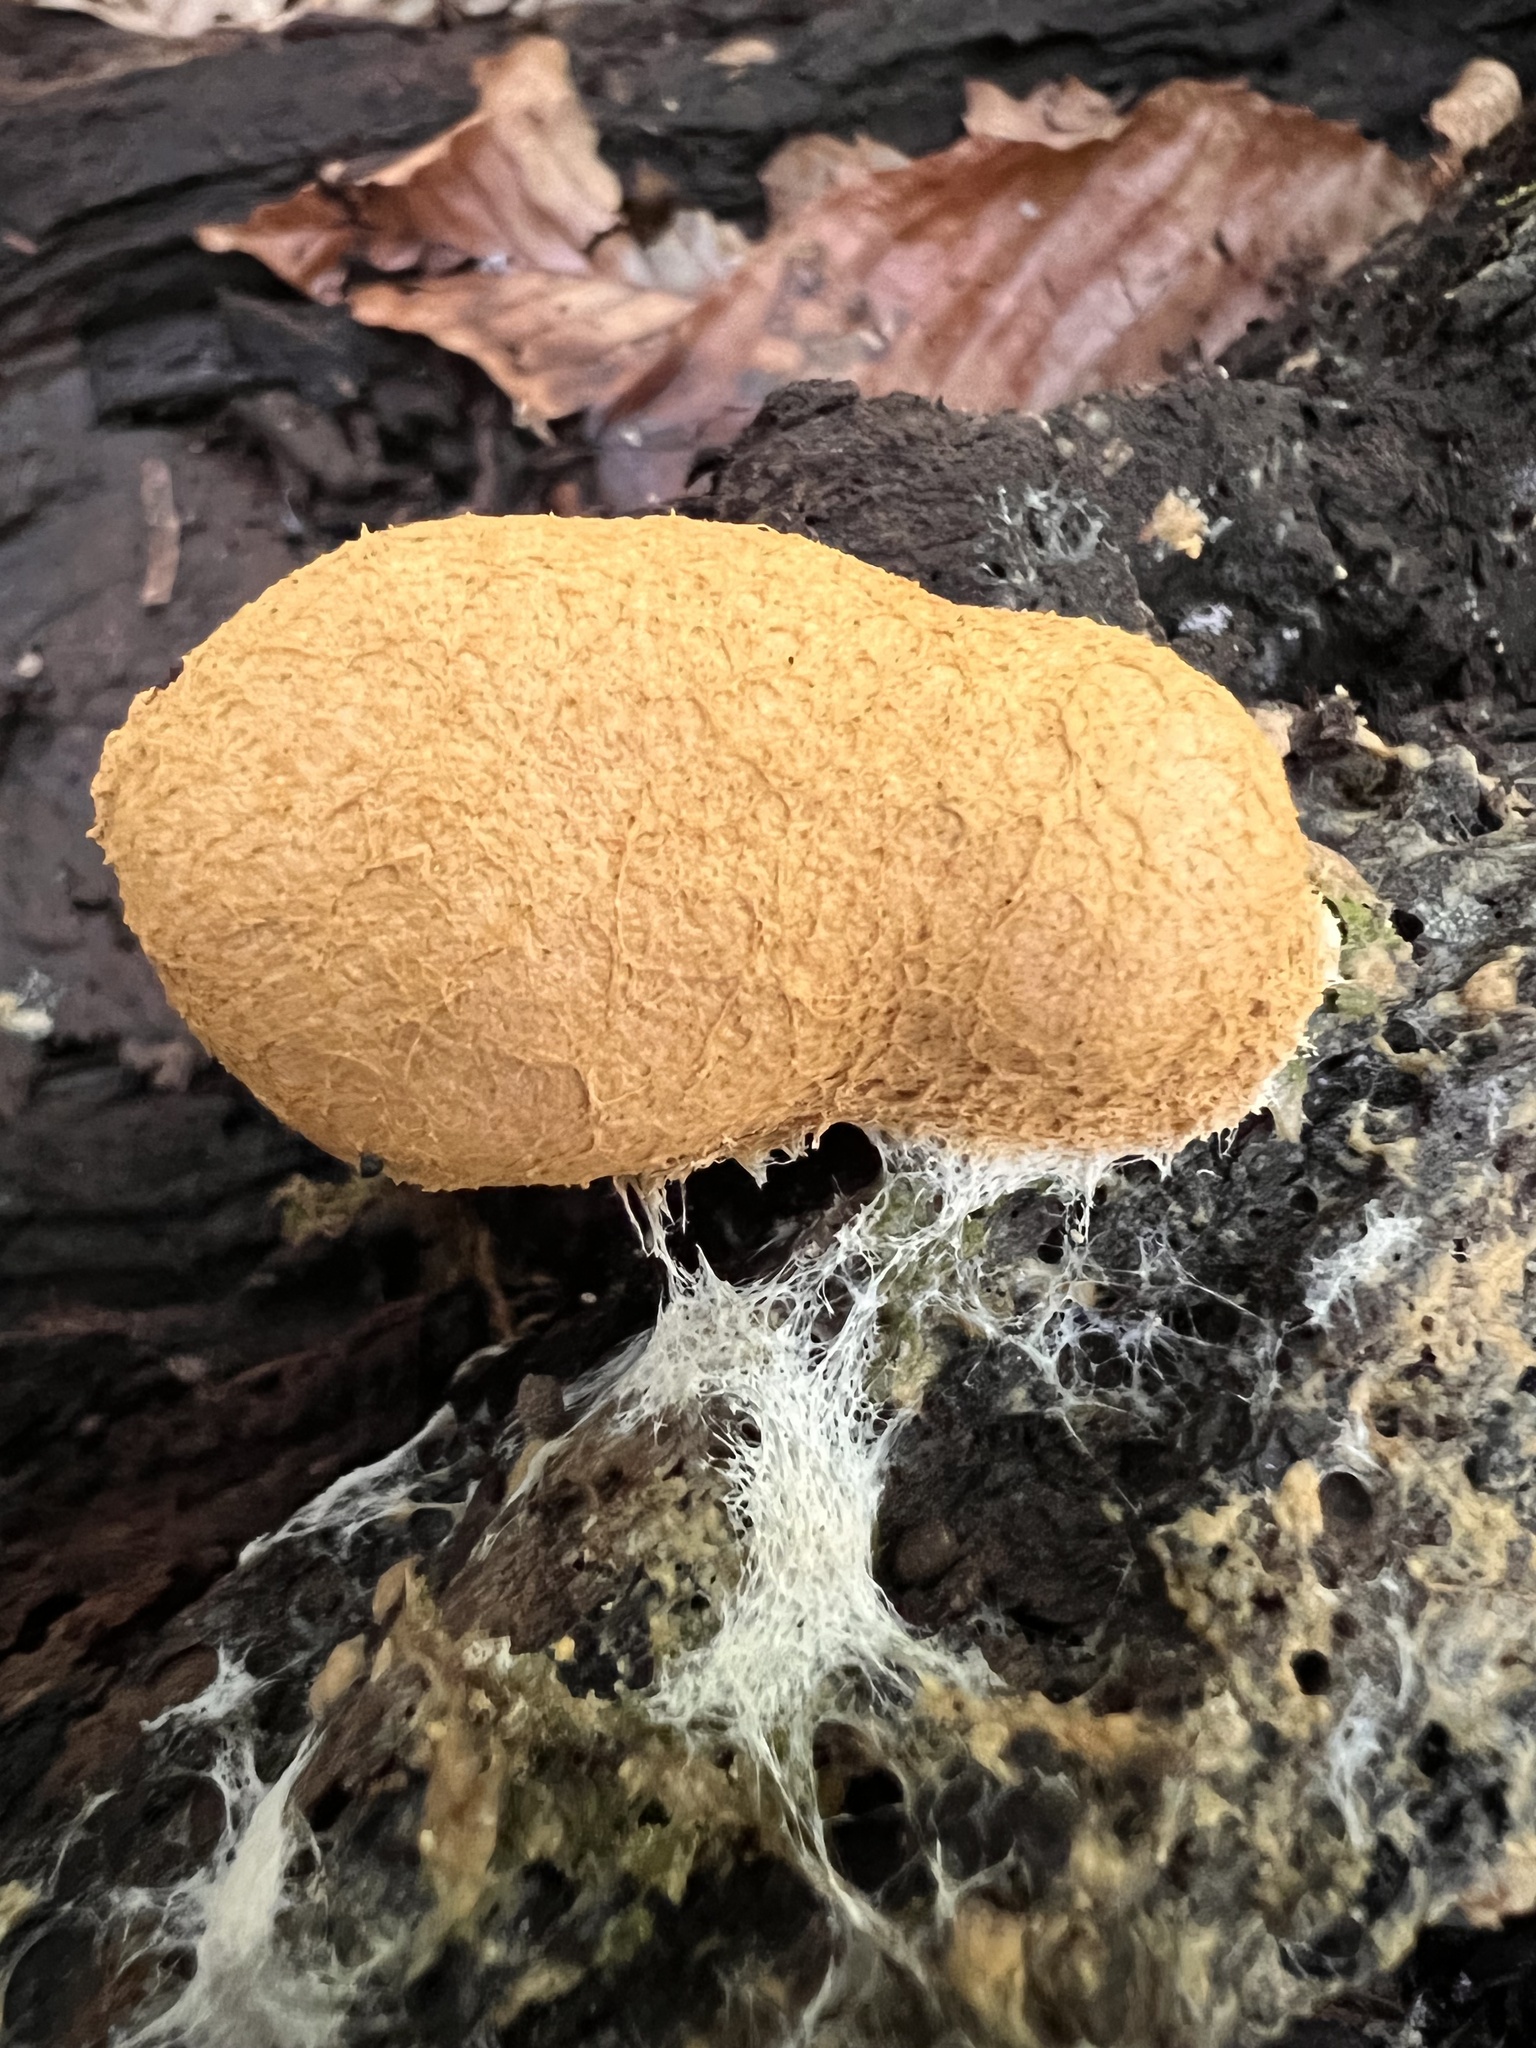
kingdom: Protozoa
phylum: Mycetozoa
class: Myxomycetes
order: Physarales
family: Physaraceae
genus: Fuligo
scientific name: Fuligo septica
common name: Dog vomit slime mold
